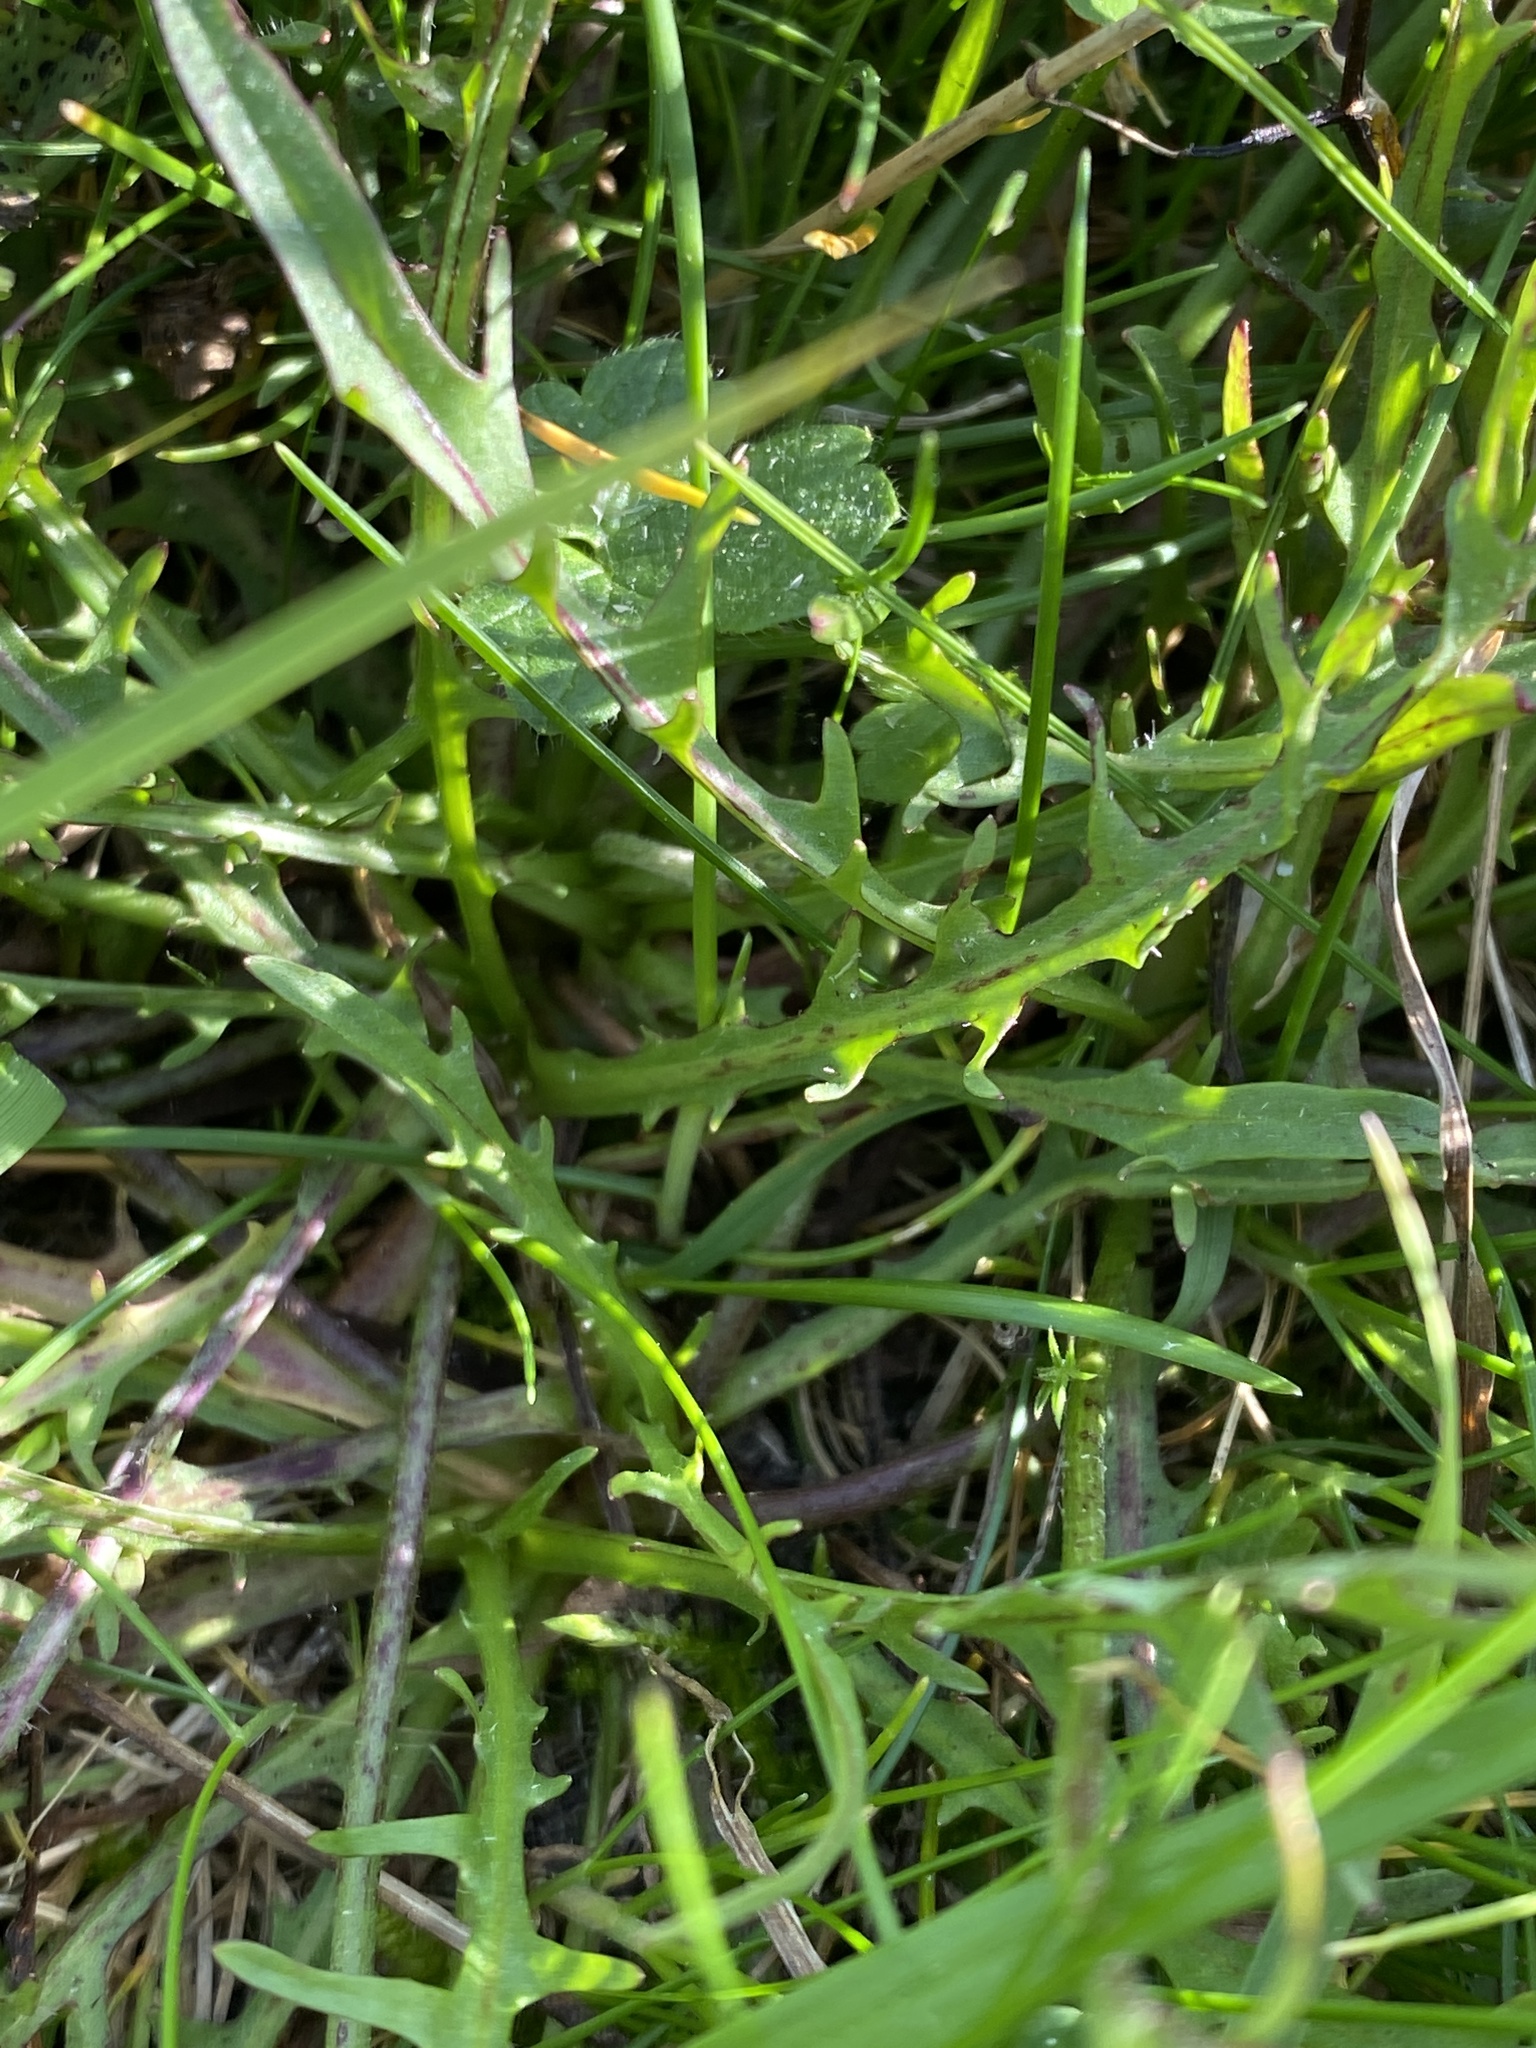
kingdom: Plantae
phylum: Tracheophyta
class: Magnoliopsida
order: Asterales
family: Asteraceae
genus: Scorzoneroides
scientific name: Scorzoneroides autumnalis
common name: Autumn hawkbit
